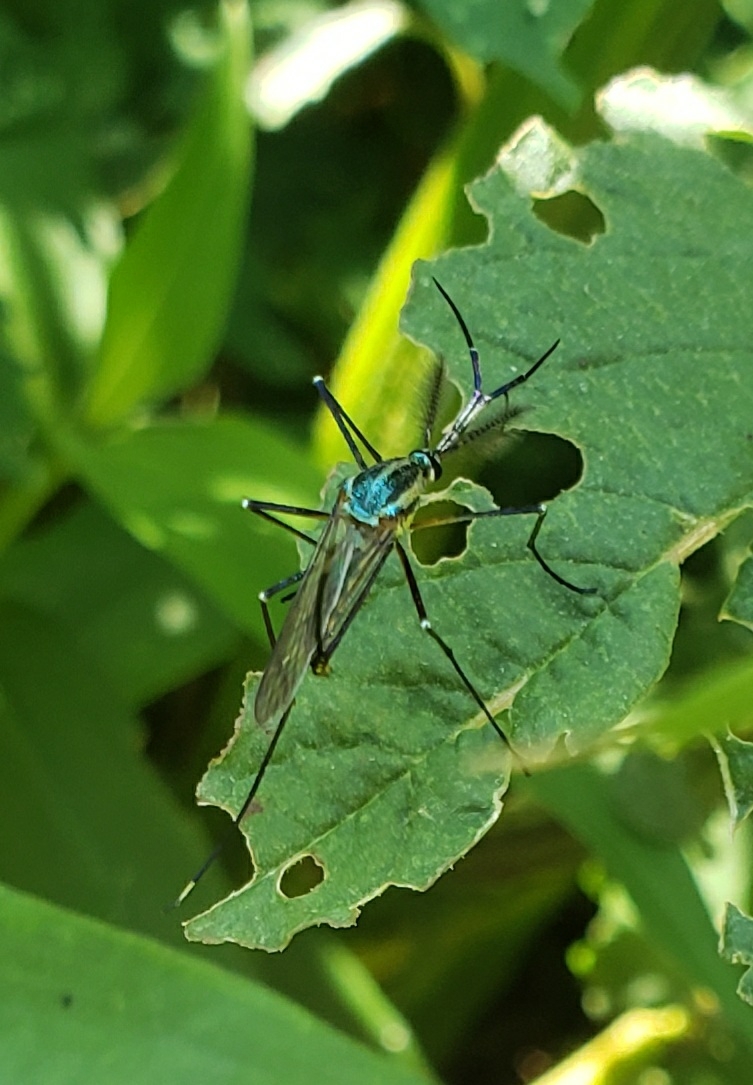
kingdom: Animalia
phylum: Arthropoda
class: Insecta
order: Diptera
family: Culicidae
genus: Toxorhynchites
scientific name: Toxorhynchites rutilus
